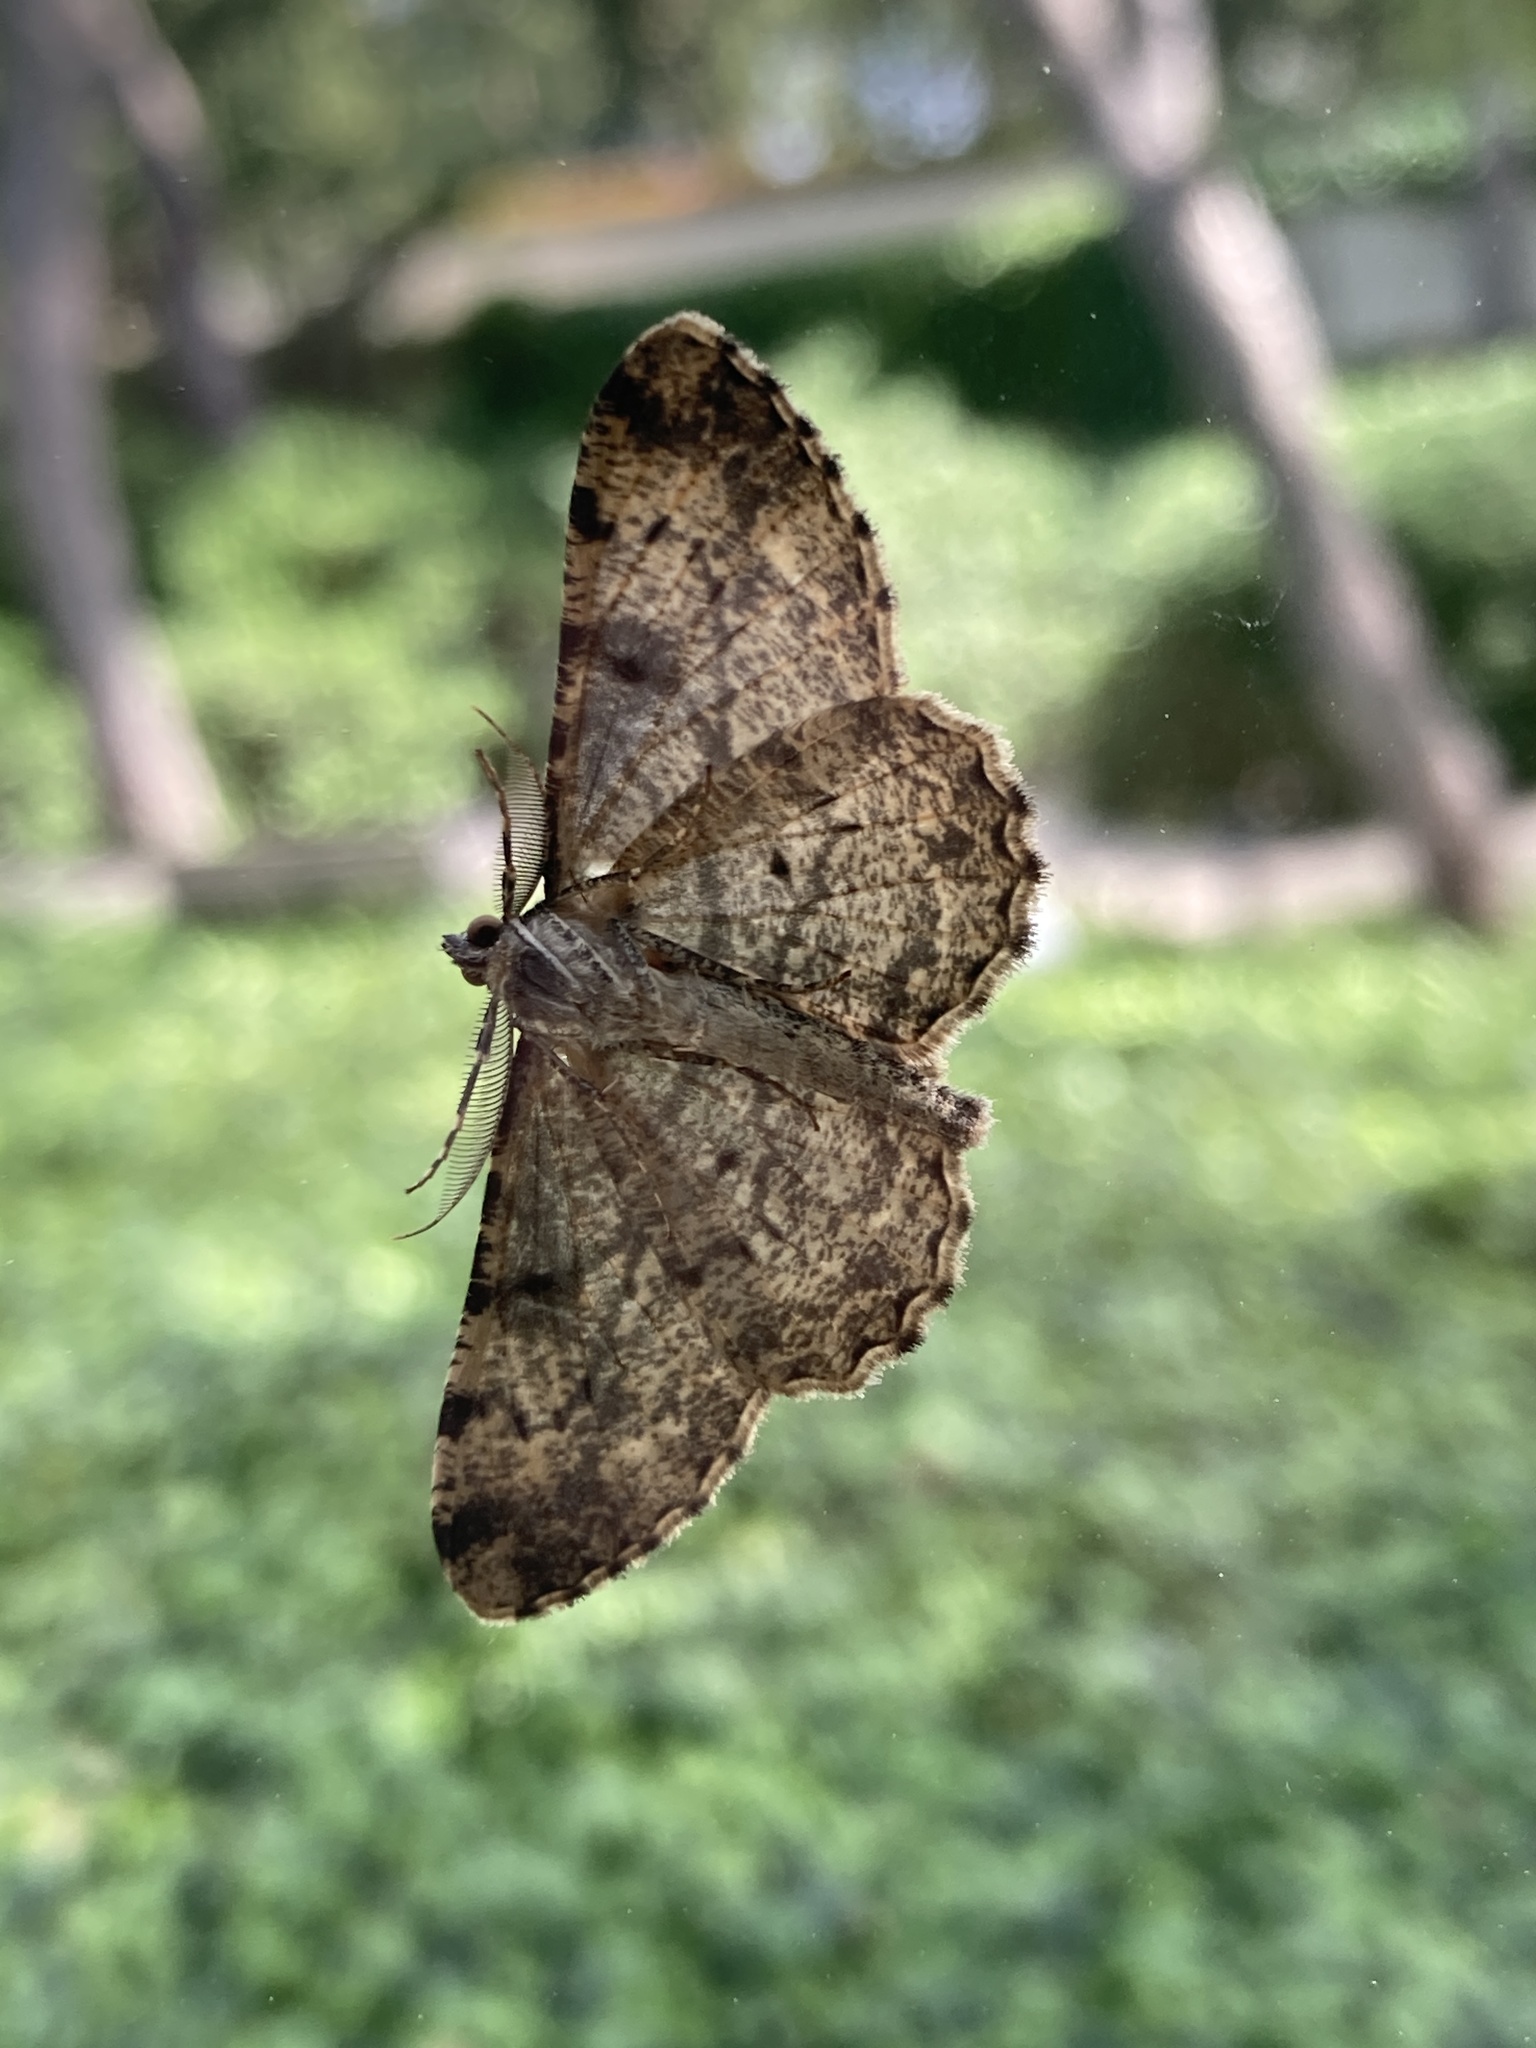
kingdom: Animalia
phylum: Arthropoda
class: Insecta
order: Lepidoptera
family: Geometridae
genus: Peribatodes
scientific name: Peribatodes rhomboidaria
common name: Willow beauty
